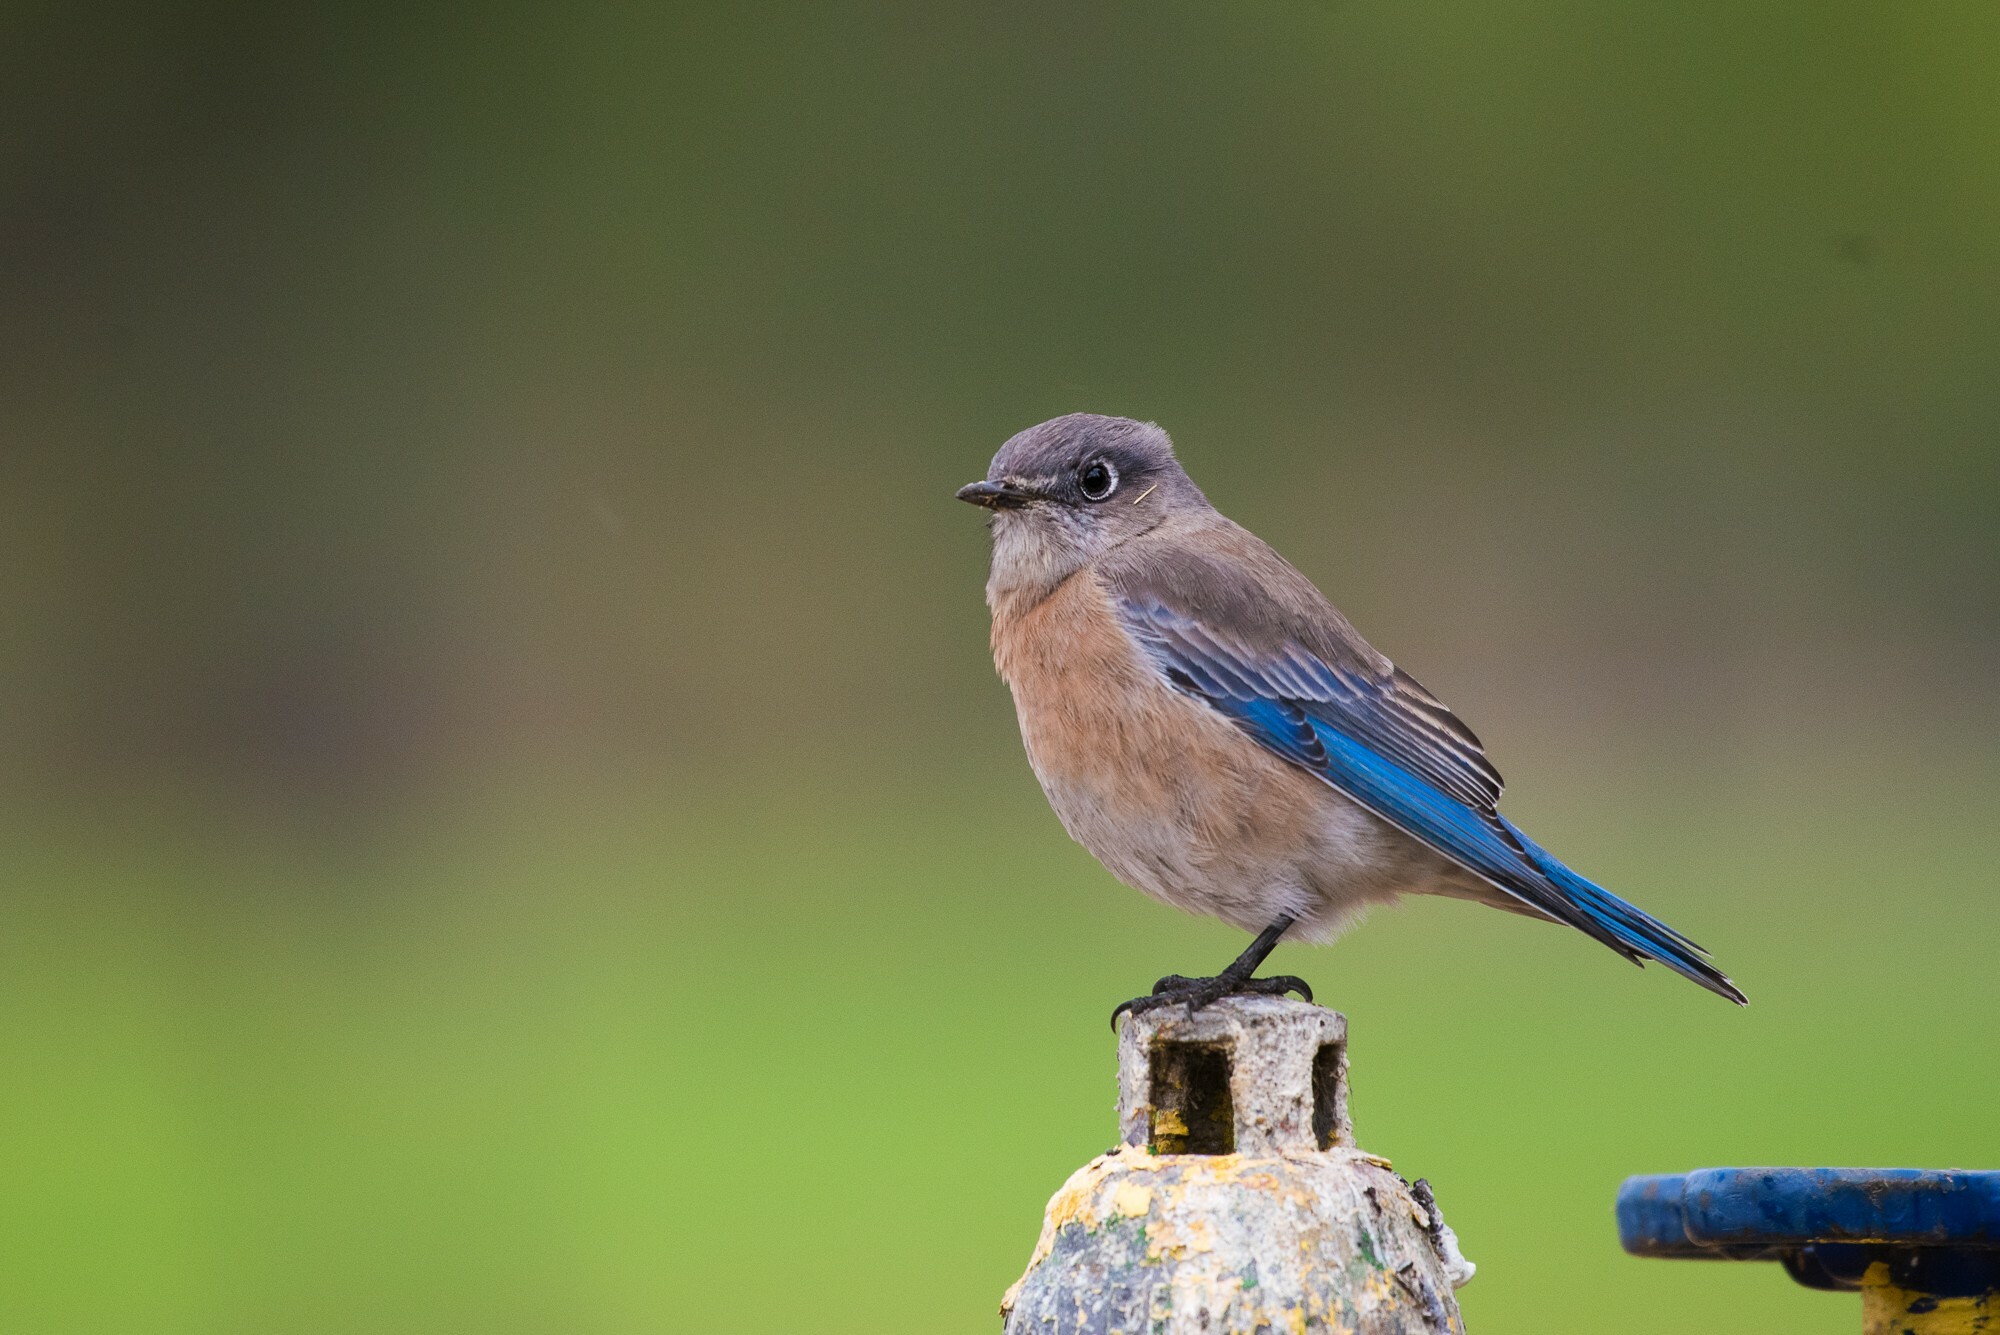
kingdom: Animalia
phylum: Chordata
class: Aves
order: Passeriformes
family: Turdidae
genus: Sialia
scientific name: Sialia mexicana
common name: Western bluebird
